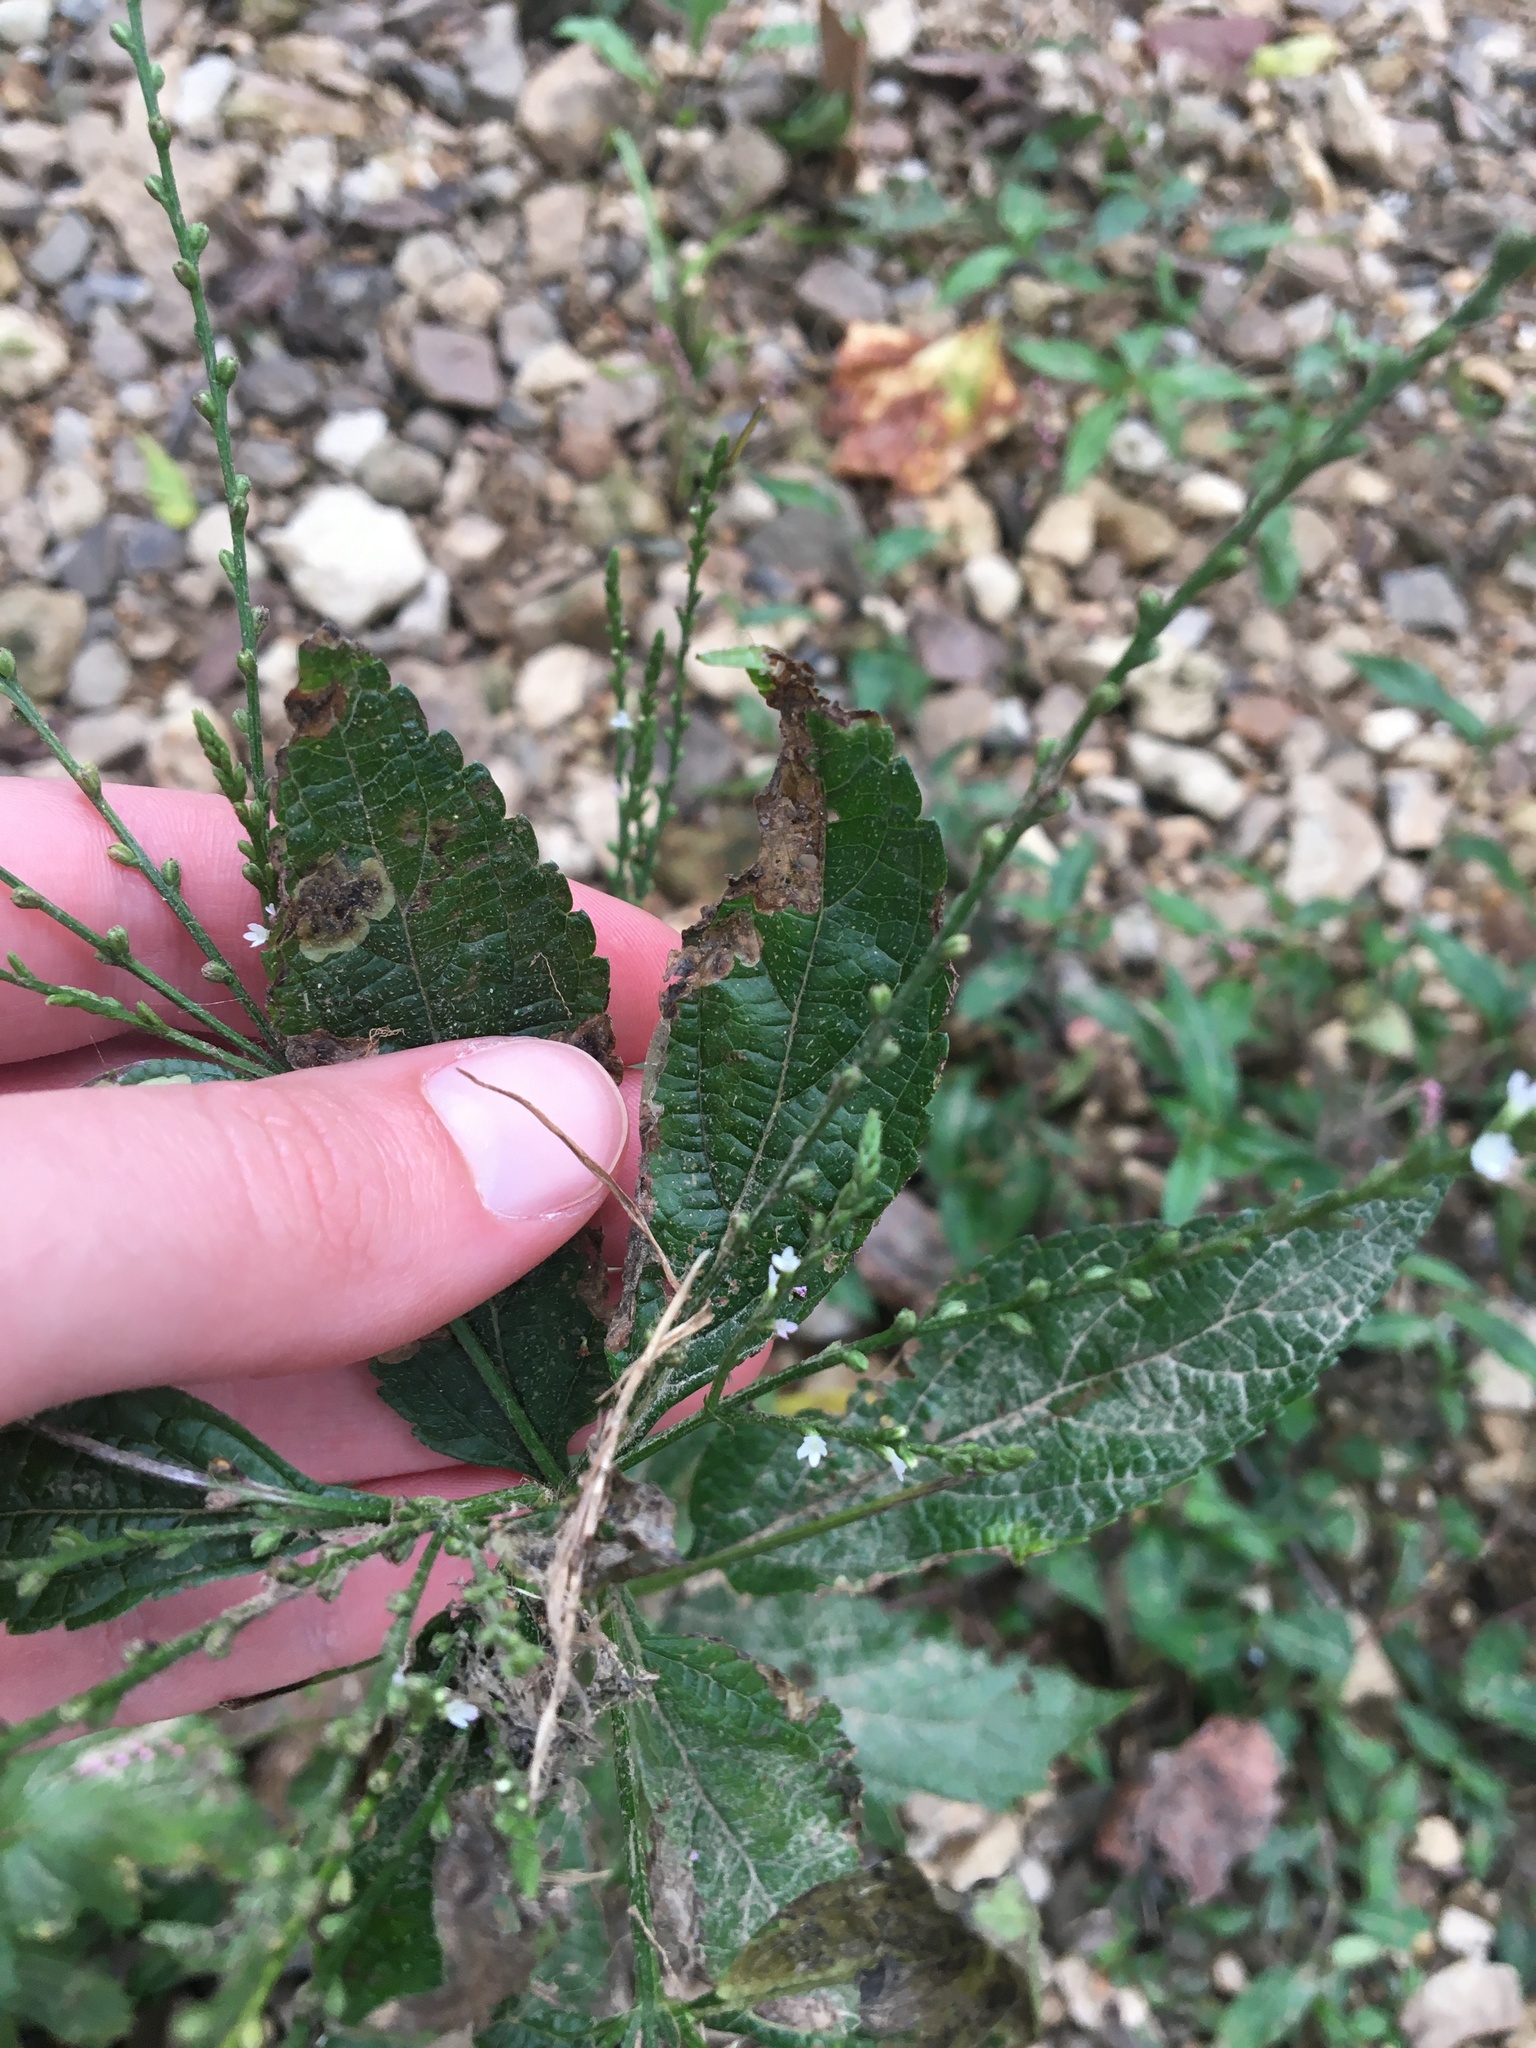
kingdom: Plantae
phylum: Tracheophyta
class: Magnoliopsida
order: Lamiales
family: Verbenaceae
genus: Verbena
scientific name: Verbena urticifolia
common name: Nettle-leaved vervain
